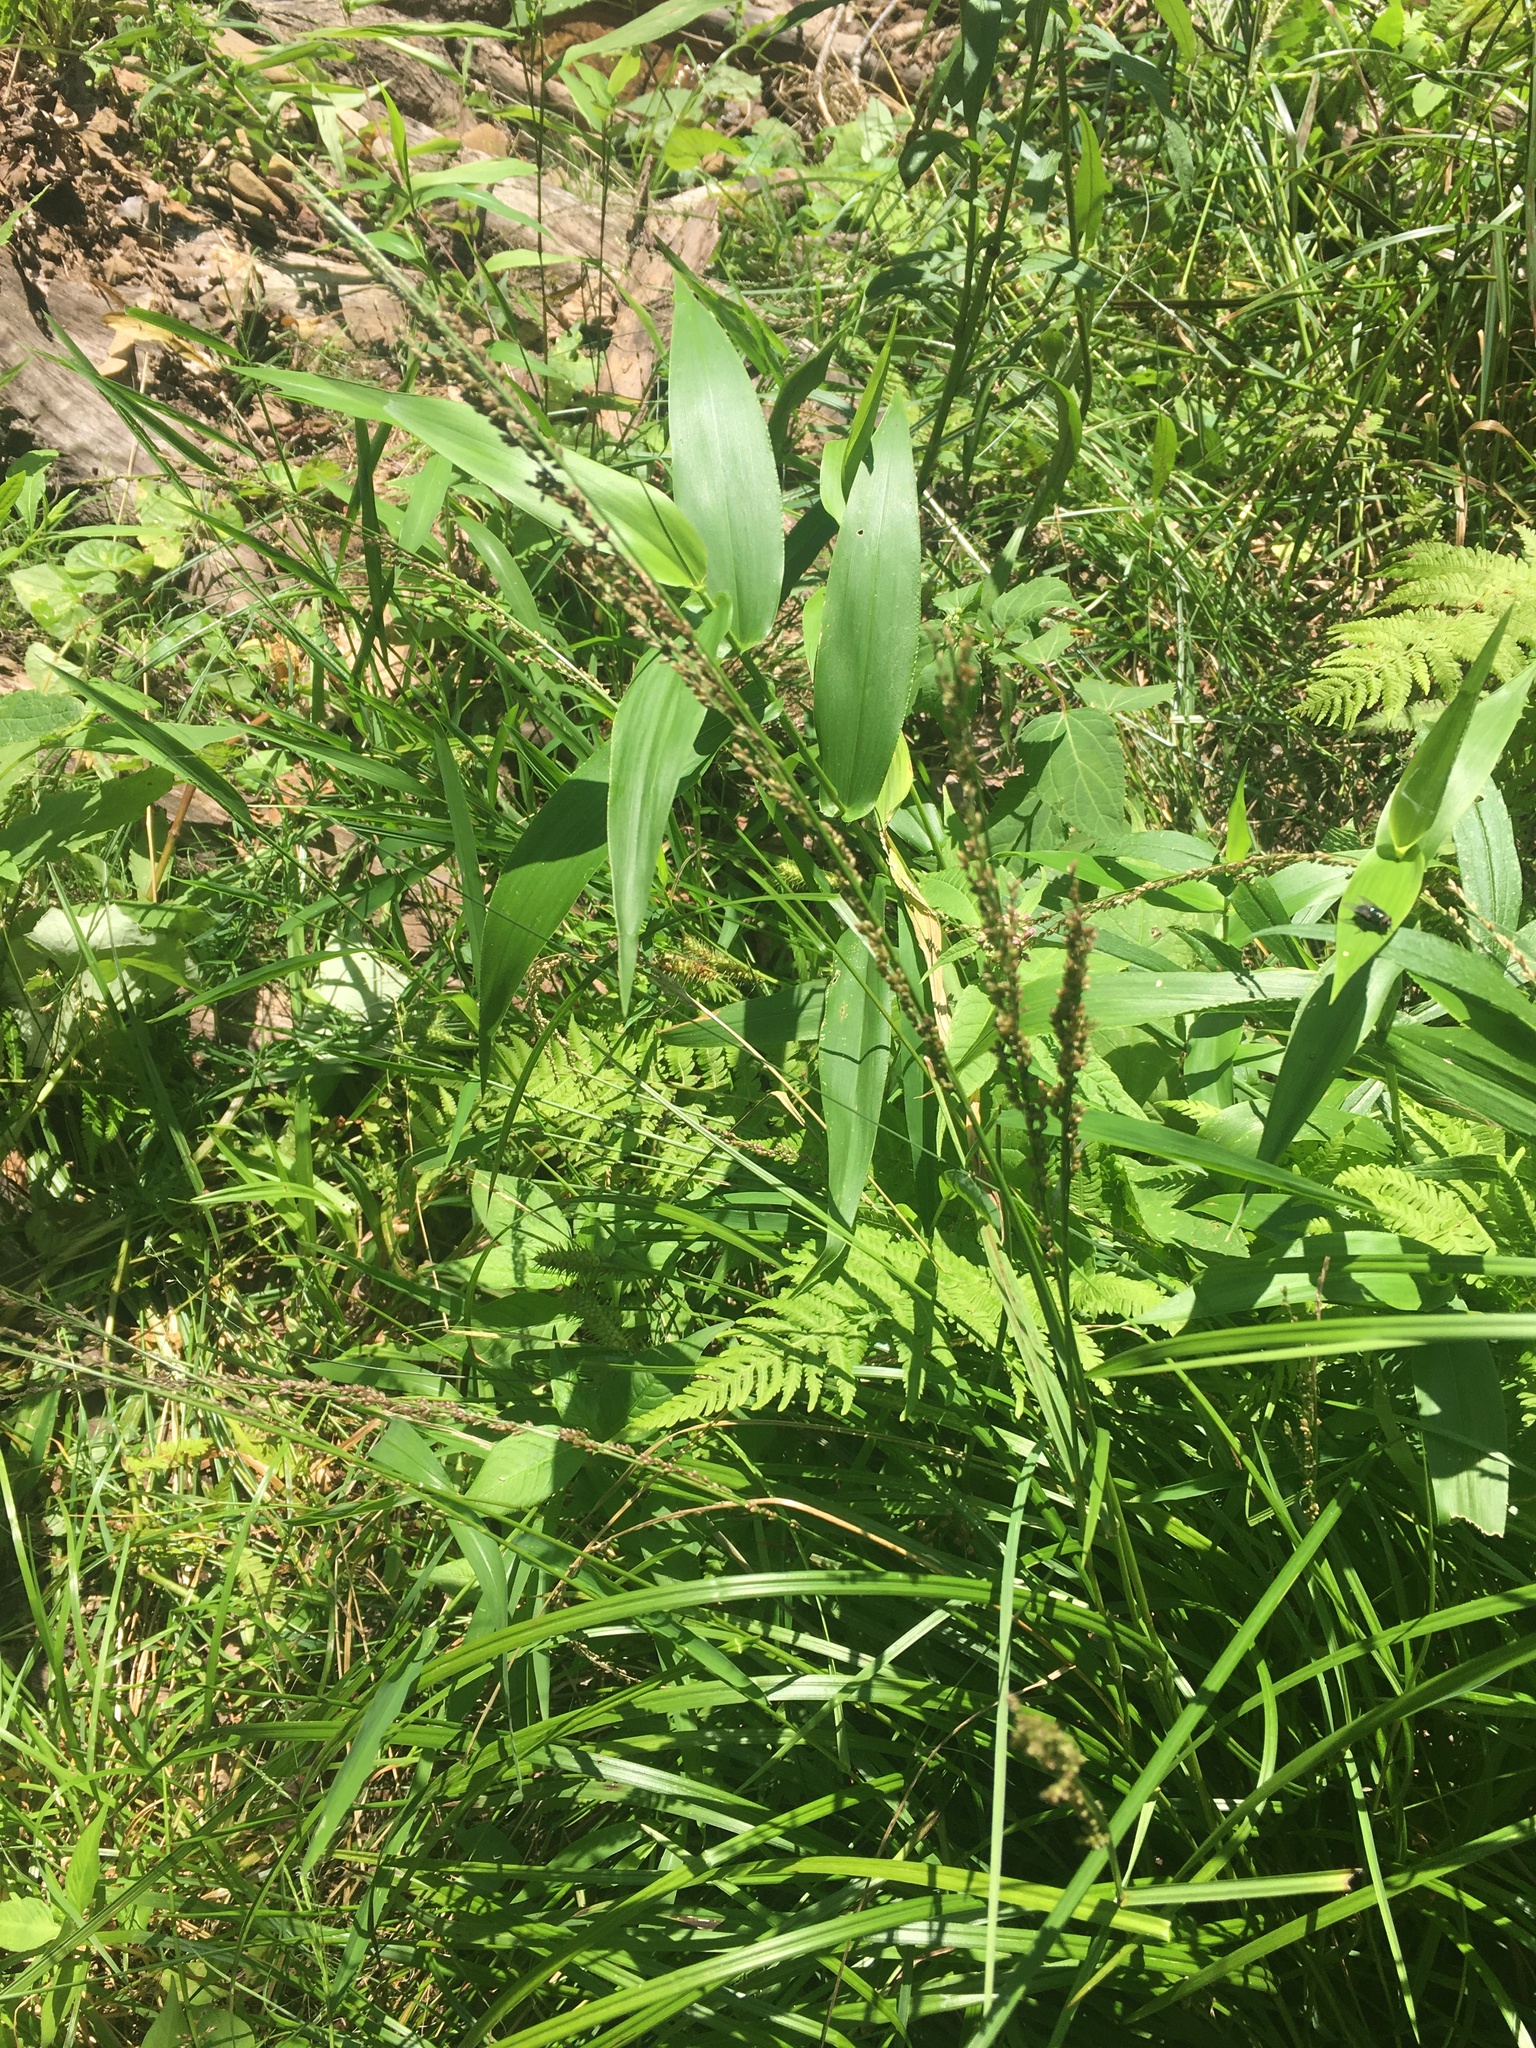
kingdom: Plantae
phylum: Tracheophyta
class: Liliopsida
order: Poales
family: Poaceae
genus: Glyceria
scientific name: Glyceria melicaria
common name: Long mannagrass
